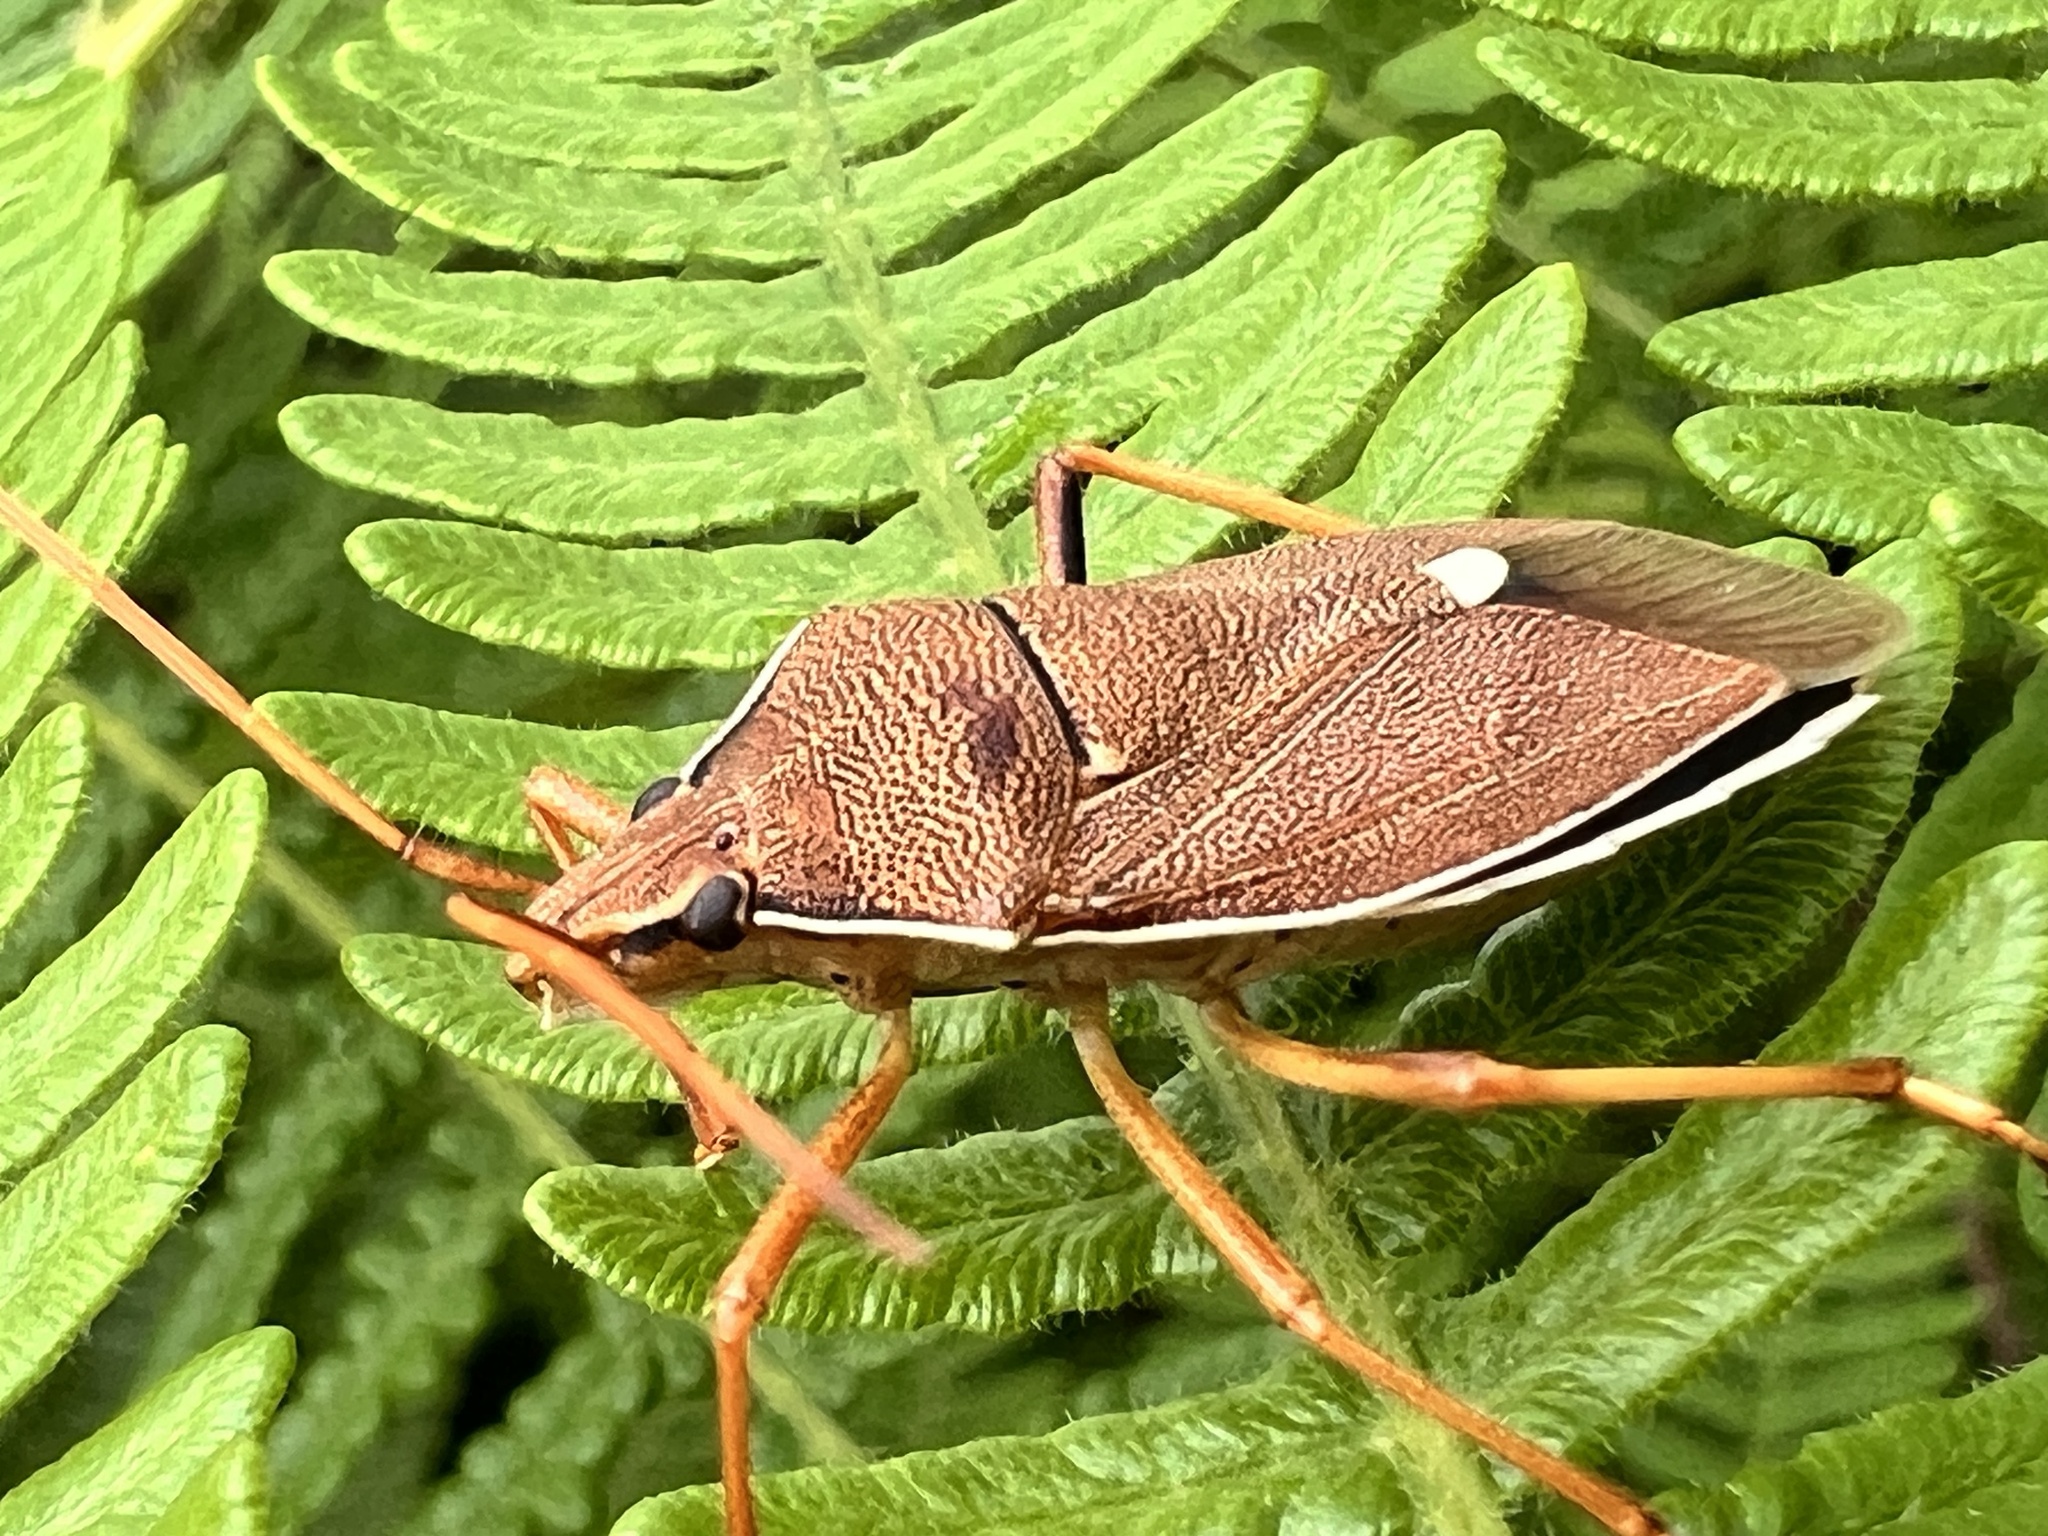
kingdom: Animalia
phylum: Arthropoda
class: Insecta
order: Hemiptera
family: Pentatomidae
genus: Poecilometis
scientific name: Poecilometis
